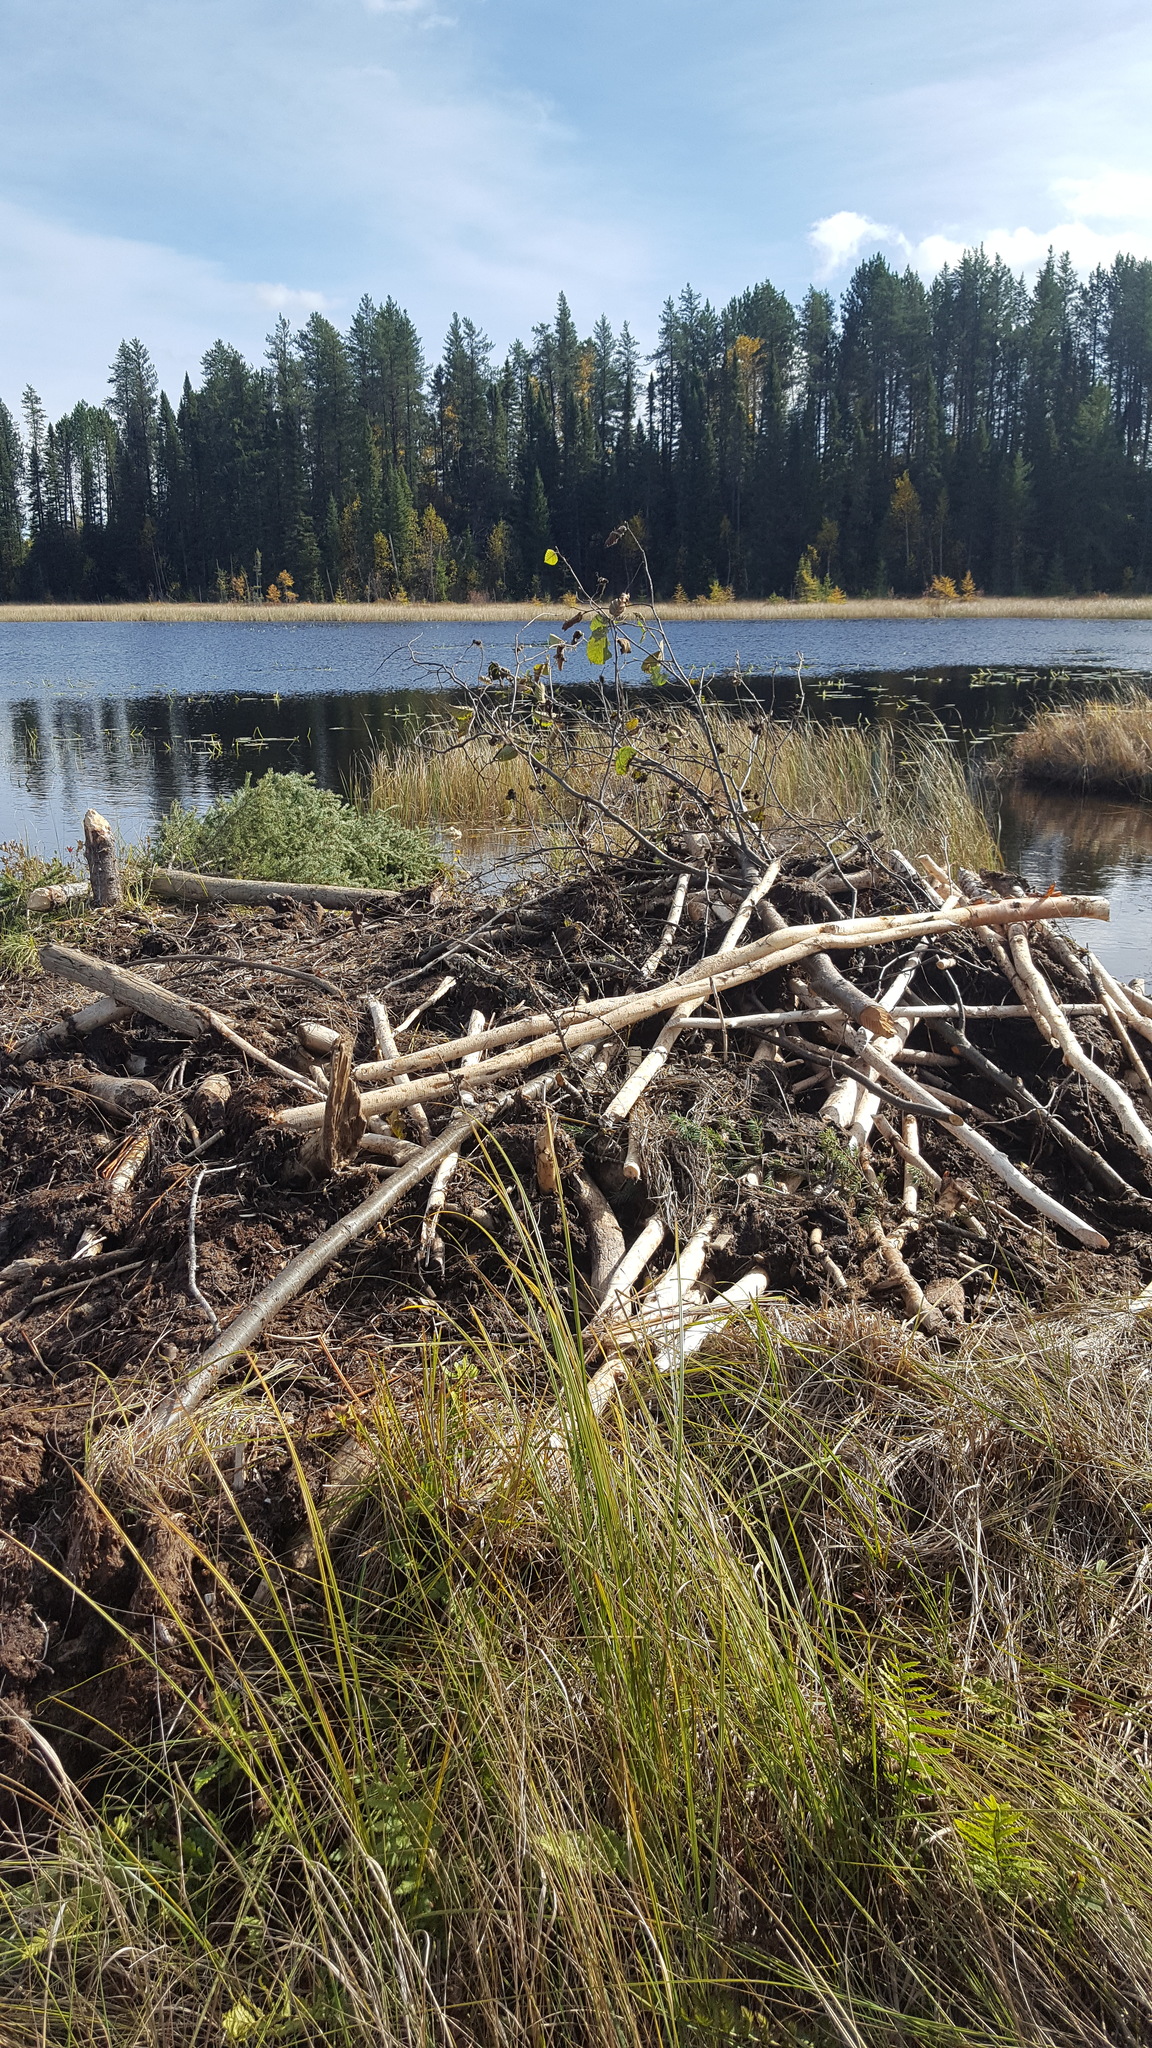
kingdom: Animalia
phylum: Chordata
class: Mammalia
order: Rodentia
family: Castoridae
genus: Castor
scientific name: Castor canadensis
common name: American beaver
